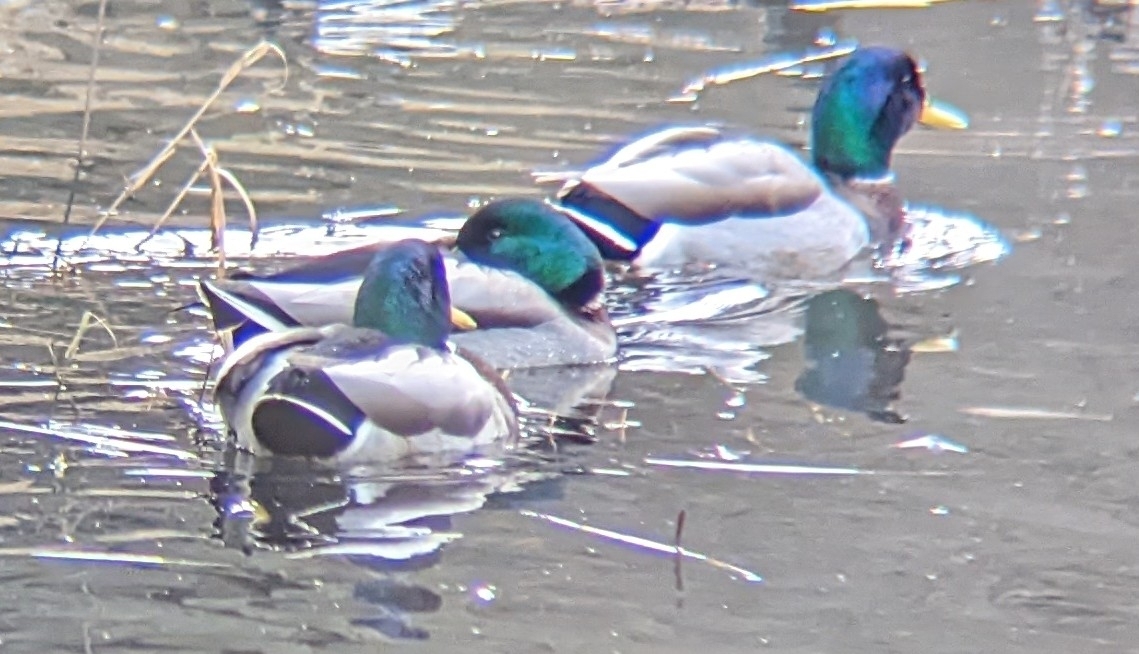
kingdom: Animalia
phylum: Chordata
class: Aves
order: Anseriformes
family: Anatidae
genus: Anas
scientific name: Anas platyrhynchos
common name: Mallard
